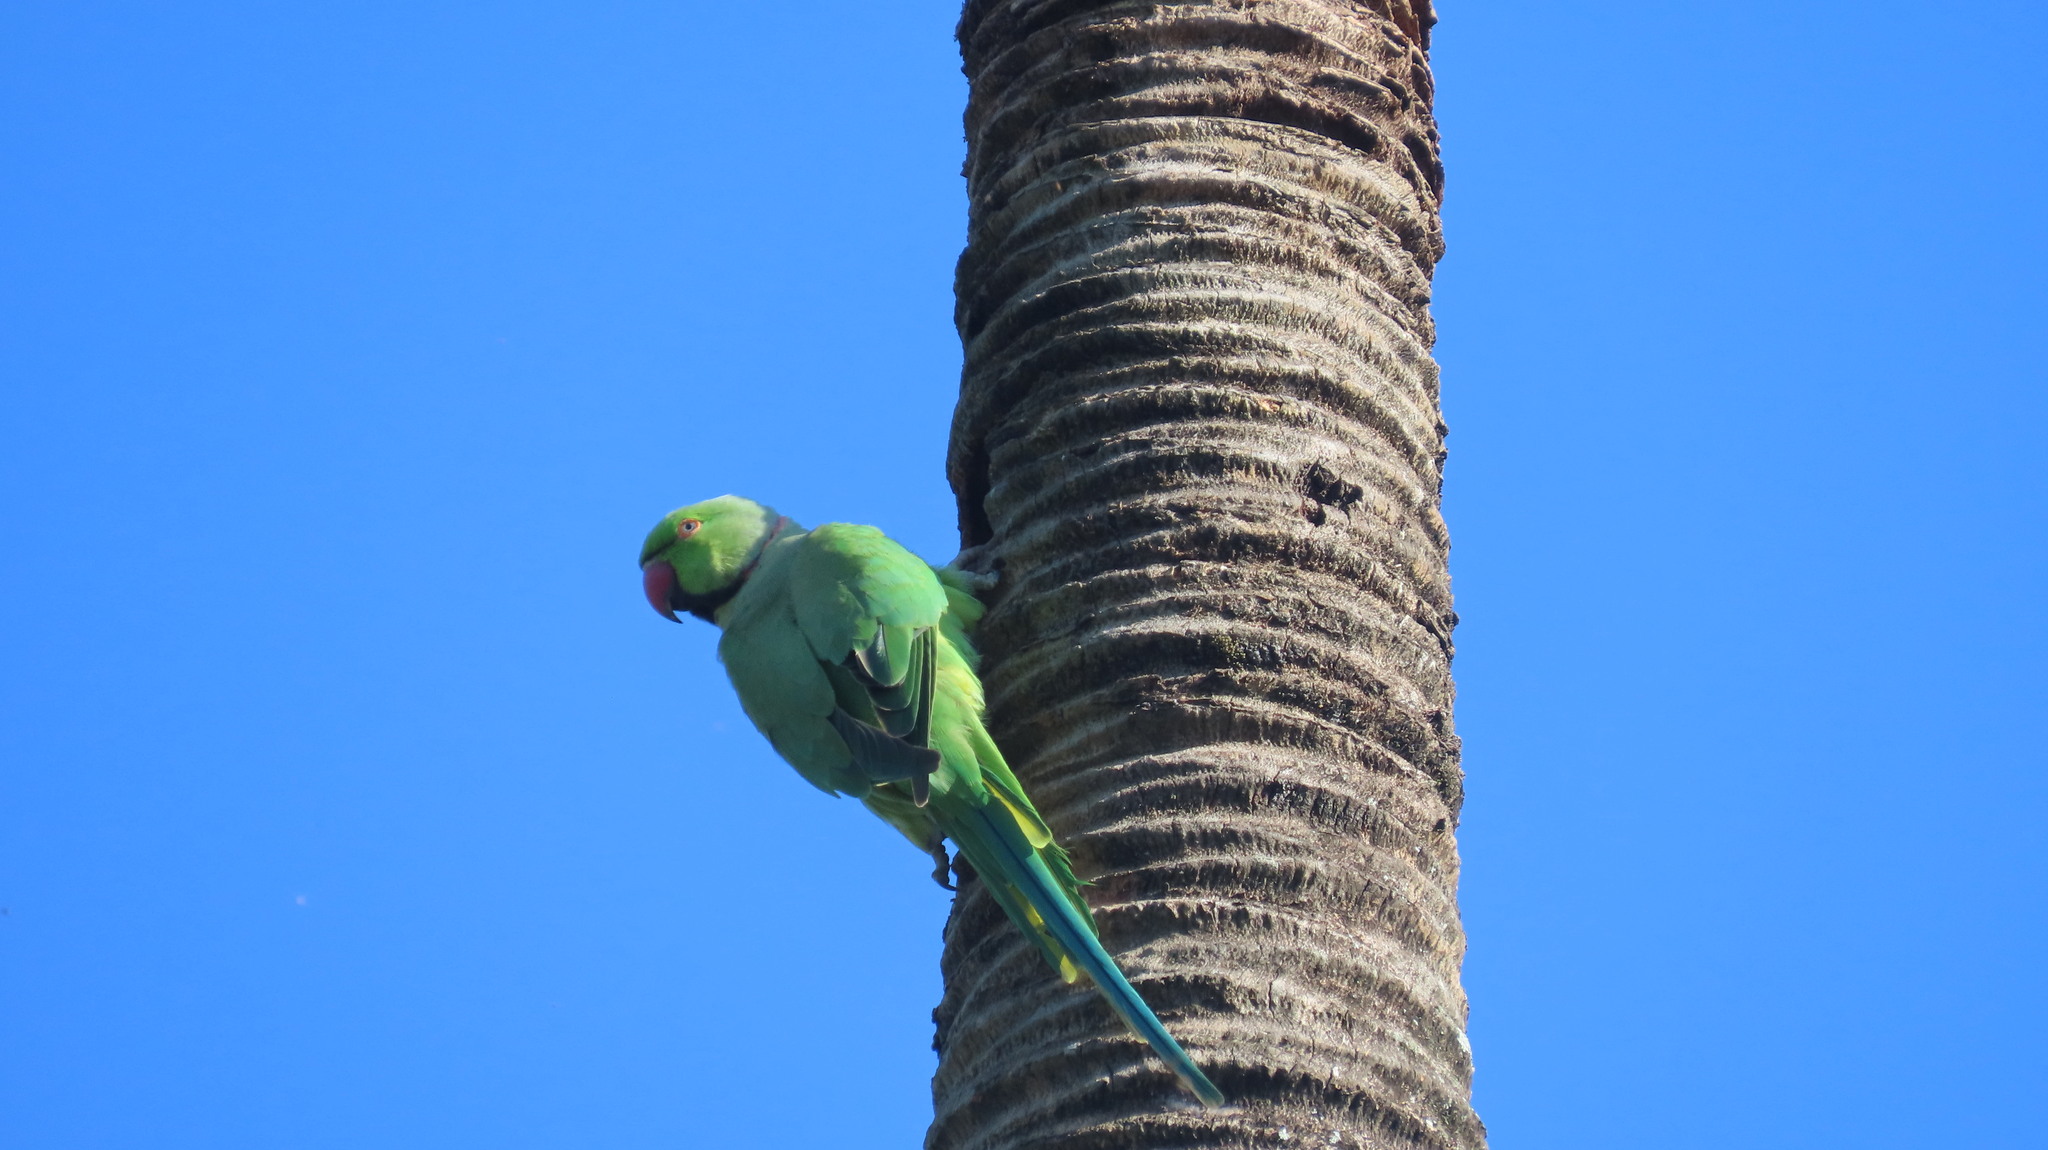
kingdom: Animalia
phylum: Chordata
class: Aves
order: Psittaciformes
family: Psittacidae
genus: Psittacula
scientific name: Psittacula krameri
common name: Rose-ringed parakeet
